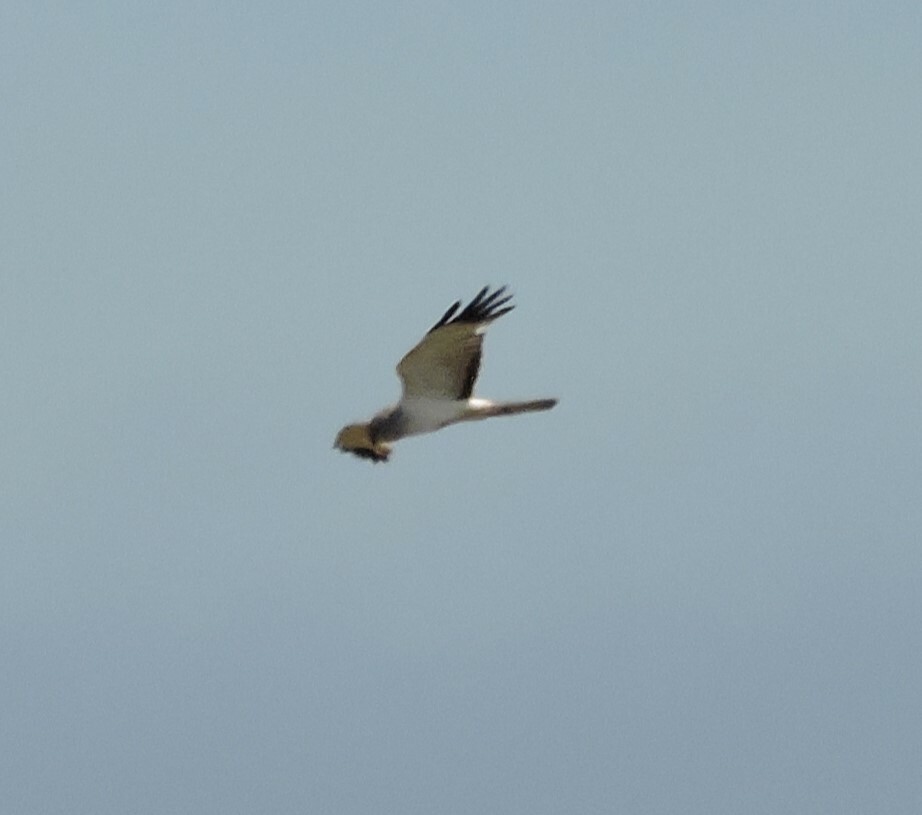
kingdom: Animalia
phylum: Chordata
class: Aves
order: Accipitriformes
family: Accipitridae
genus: Circus
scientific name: Circus cyaneus
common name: Hen harrier
